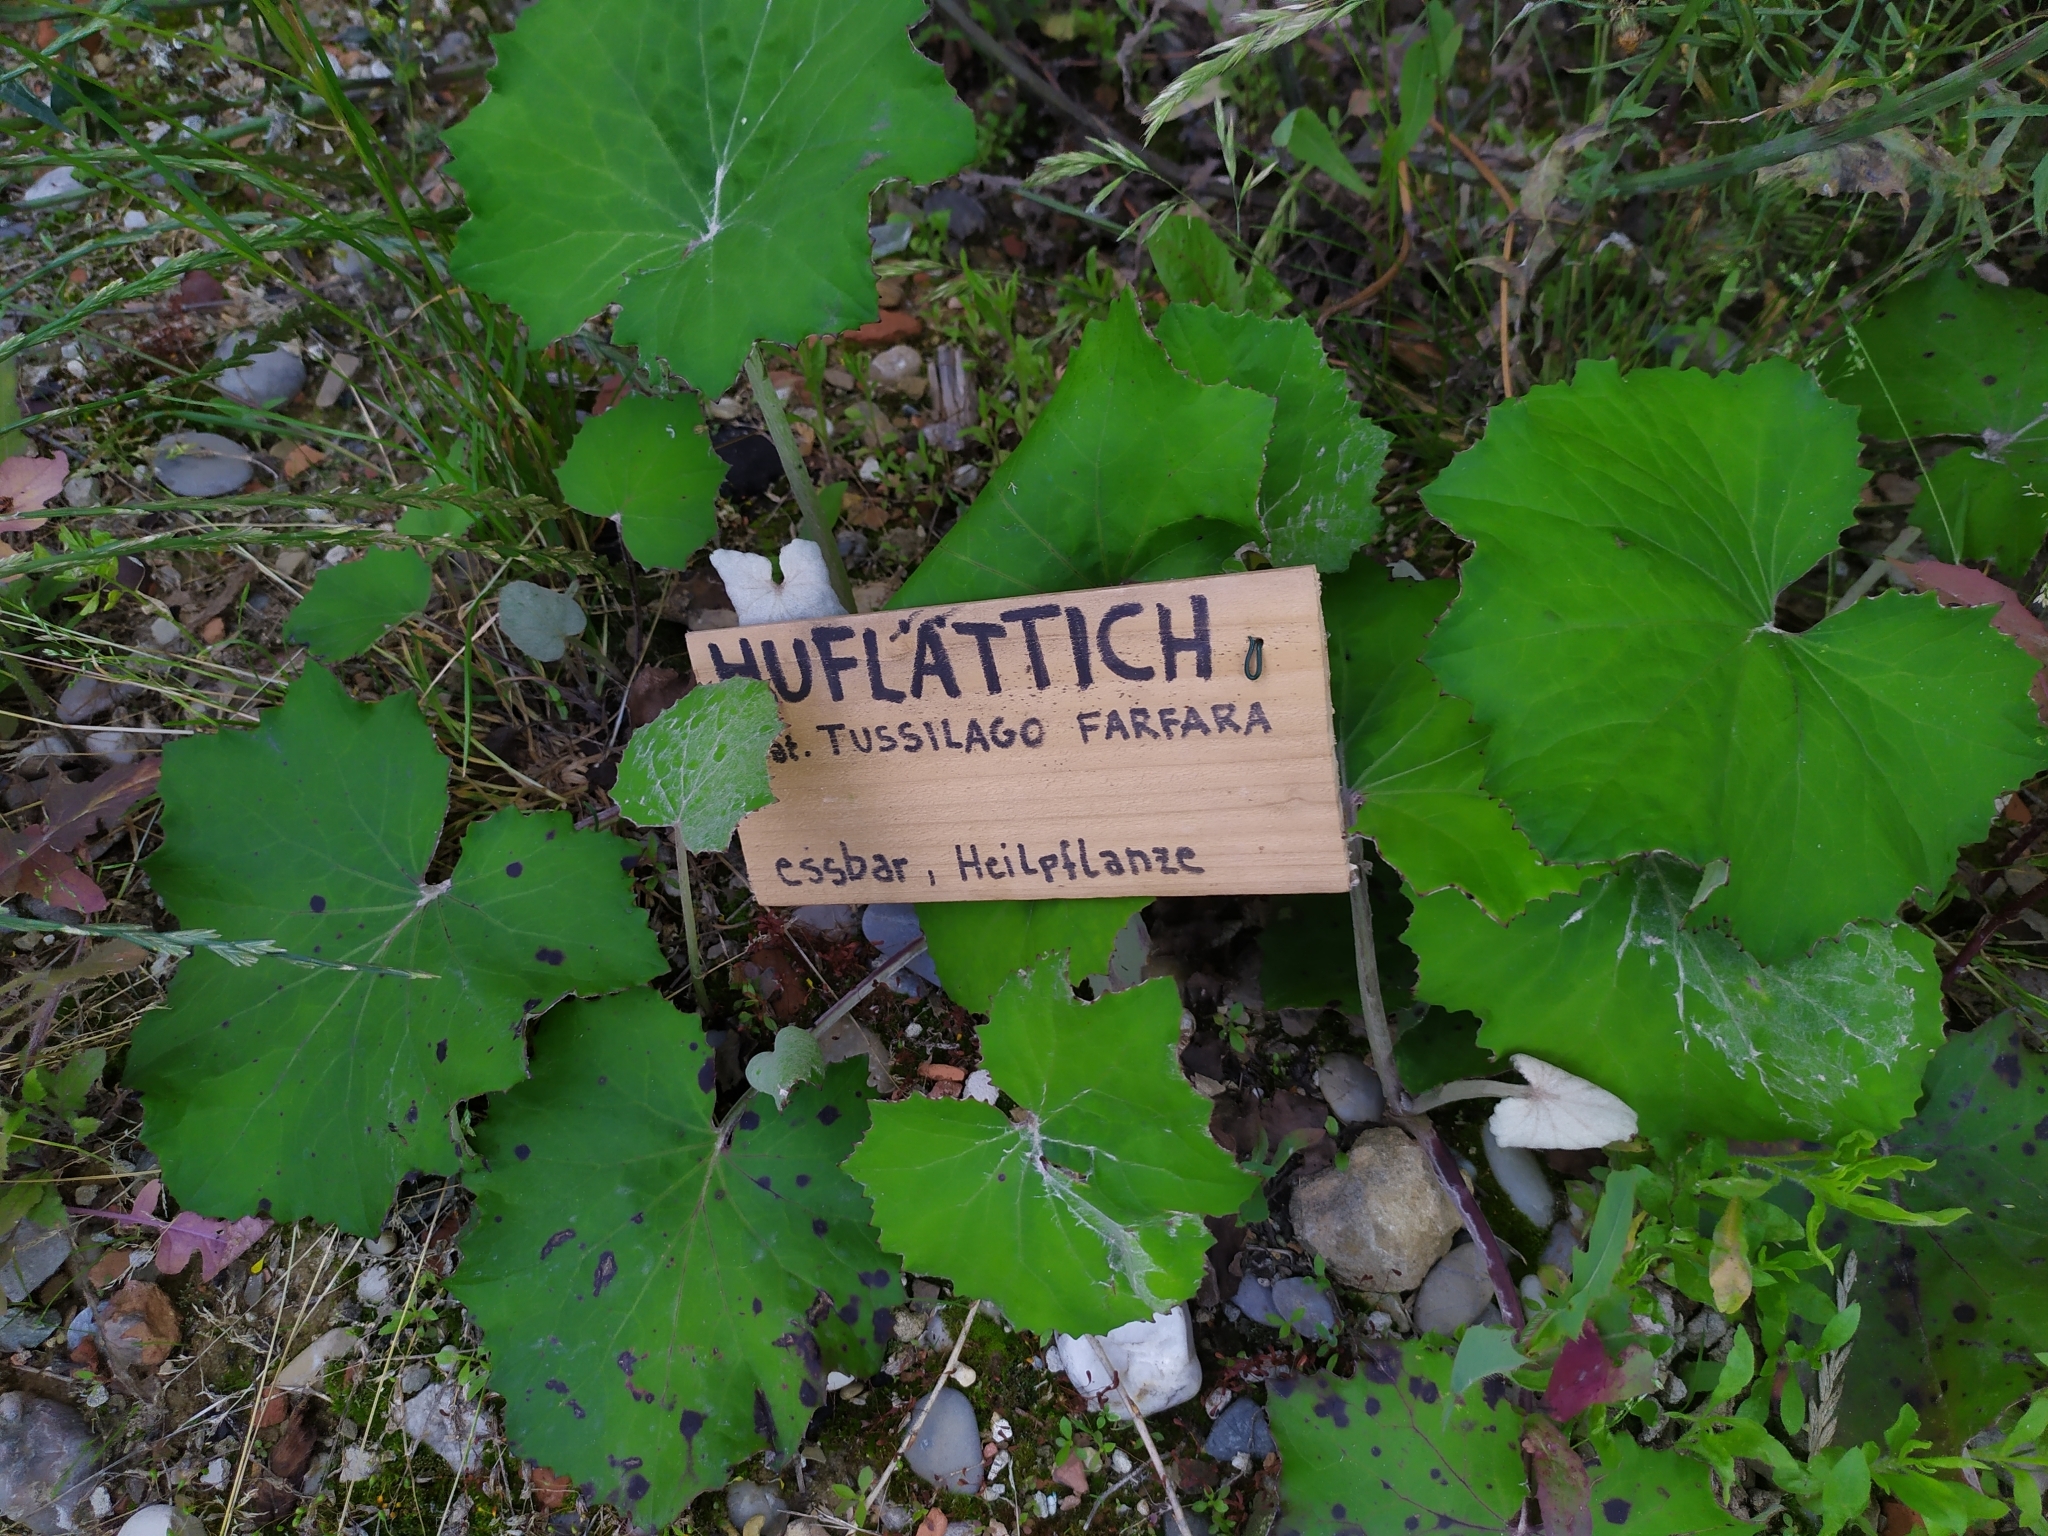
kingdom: Plantae
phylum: Tracheophyta
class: Magnoliopsida
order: Asterales
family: Asteraceae
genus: Tussilago
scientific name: Tussilago farfara
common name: Coltsfoot
